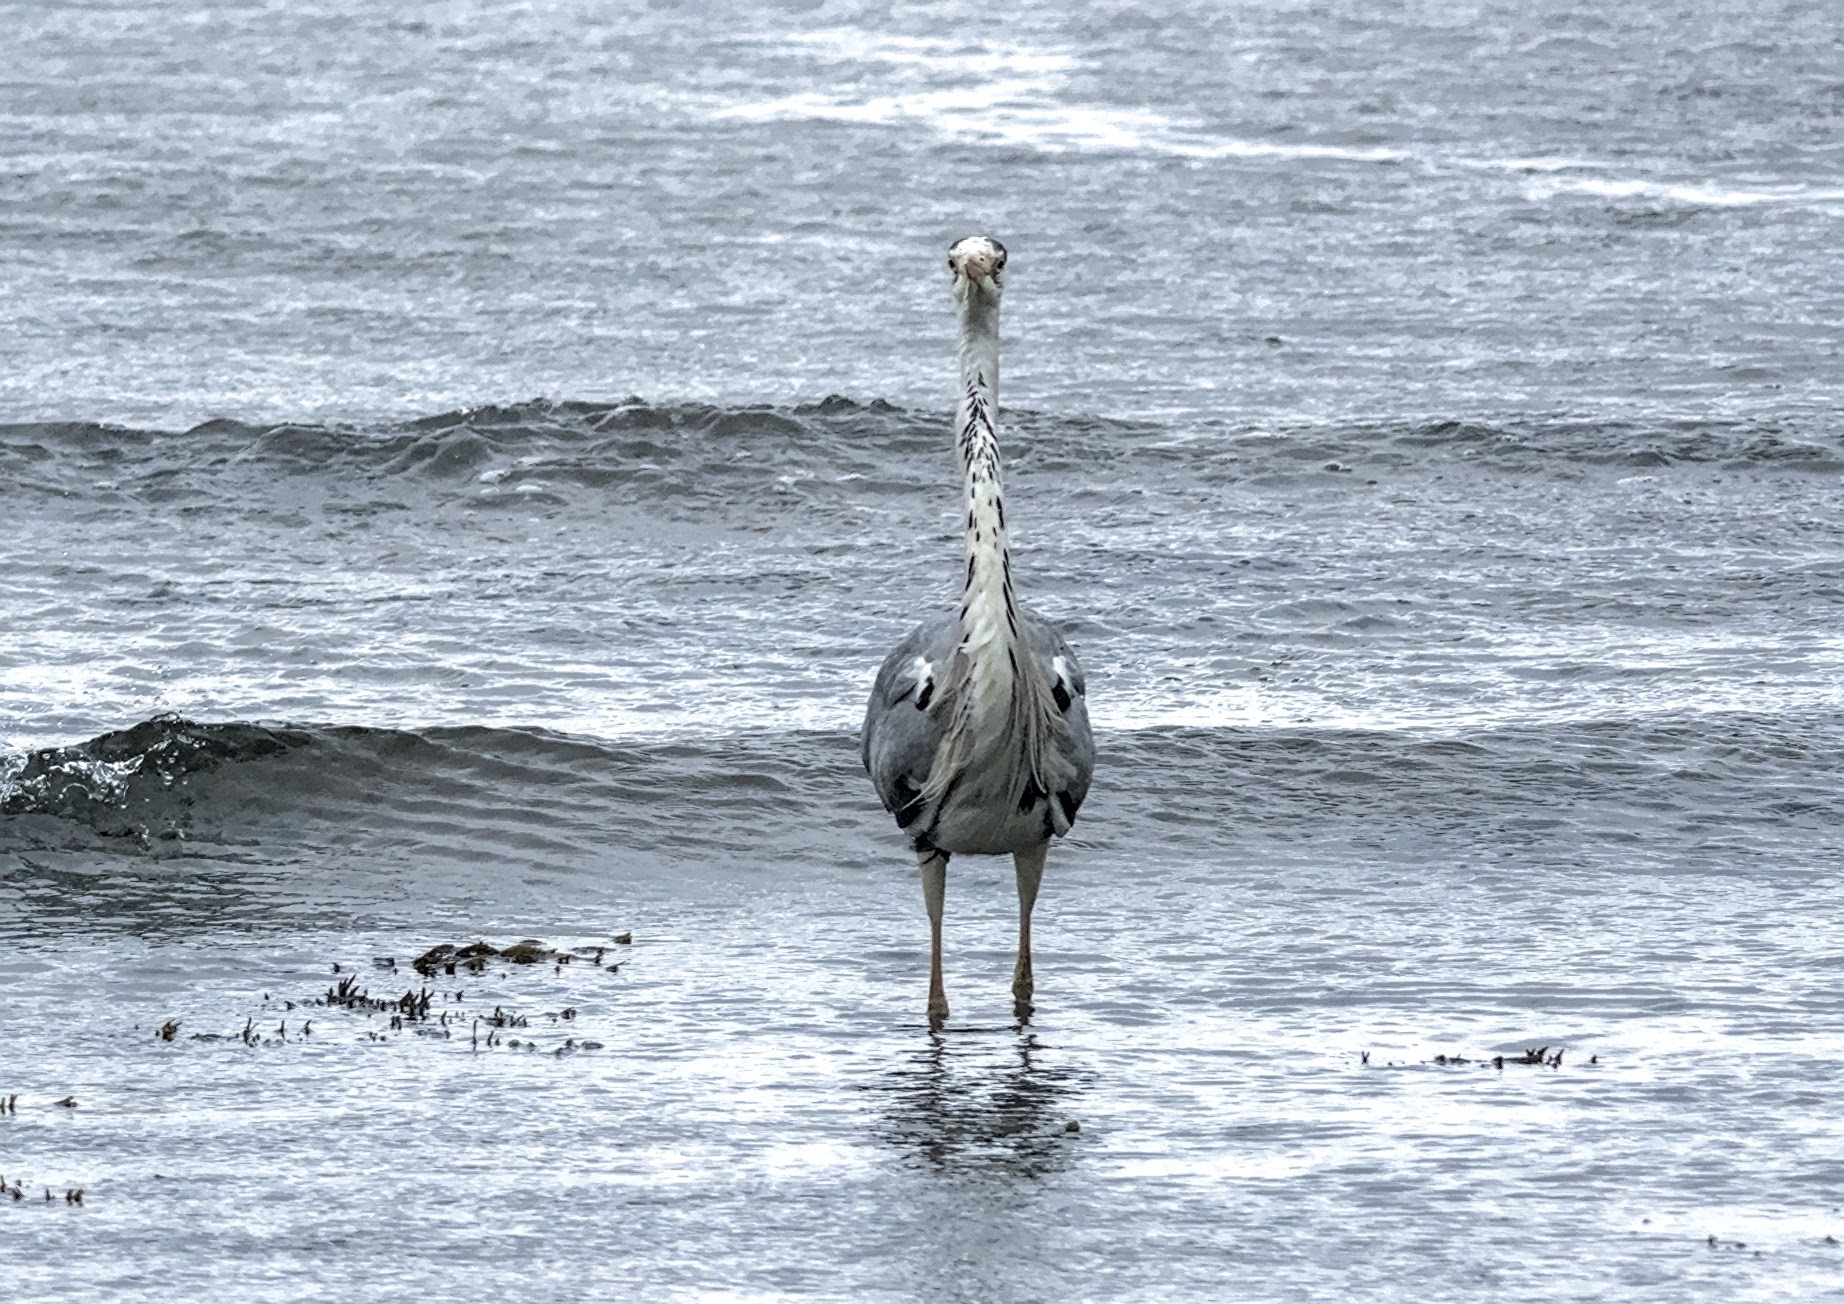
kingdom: Animalia
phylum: Chordata
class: Aves
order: Pelecaniformes
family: Ardeidae
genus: Ardea
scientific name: Ardea cinerea
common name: Grey heron
